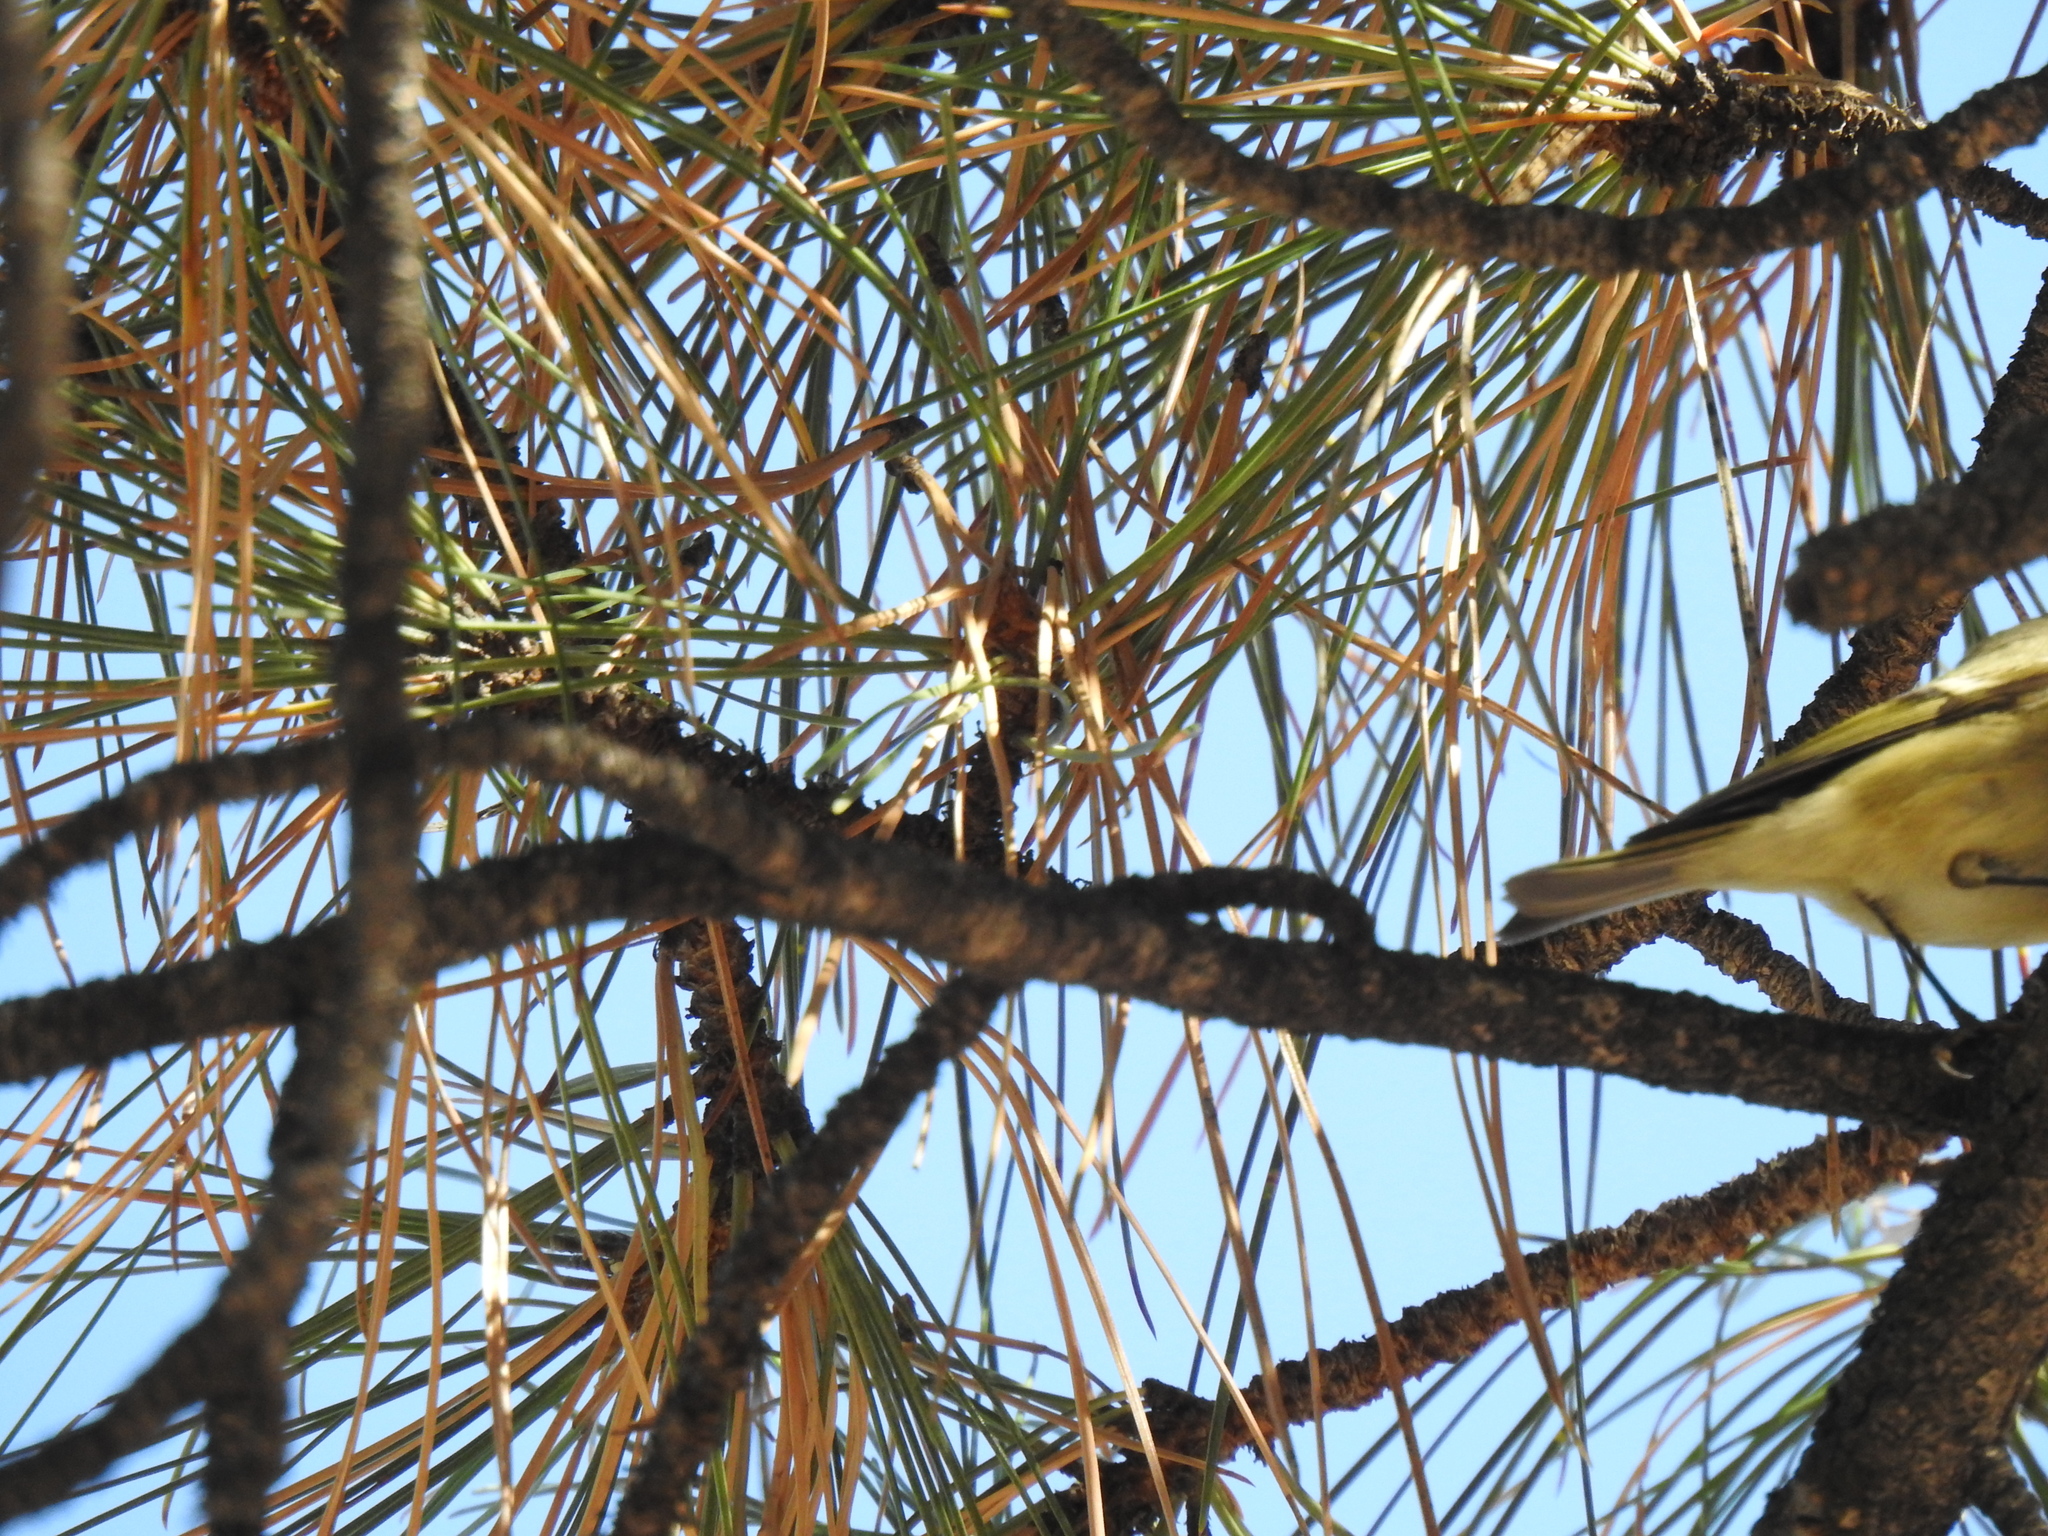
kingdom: Animalia
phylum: Chordata
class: Aves
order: Passeriformes
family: Regulidae
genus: Regulus
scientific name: Regulus calendula
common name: Ruby-crowned kinglet
